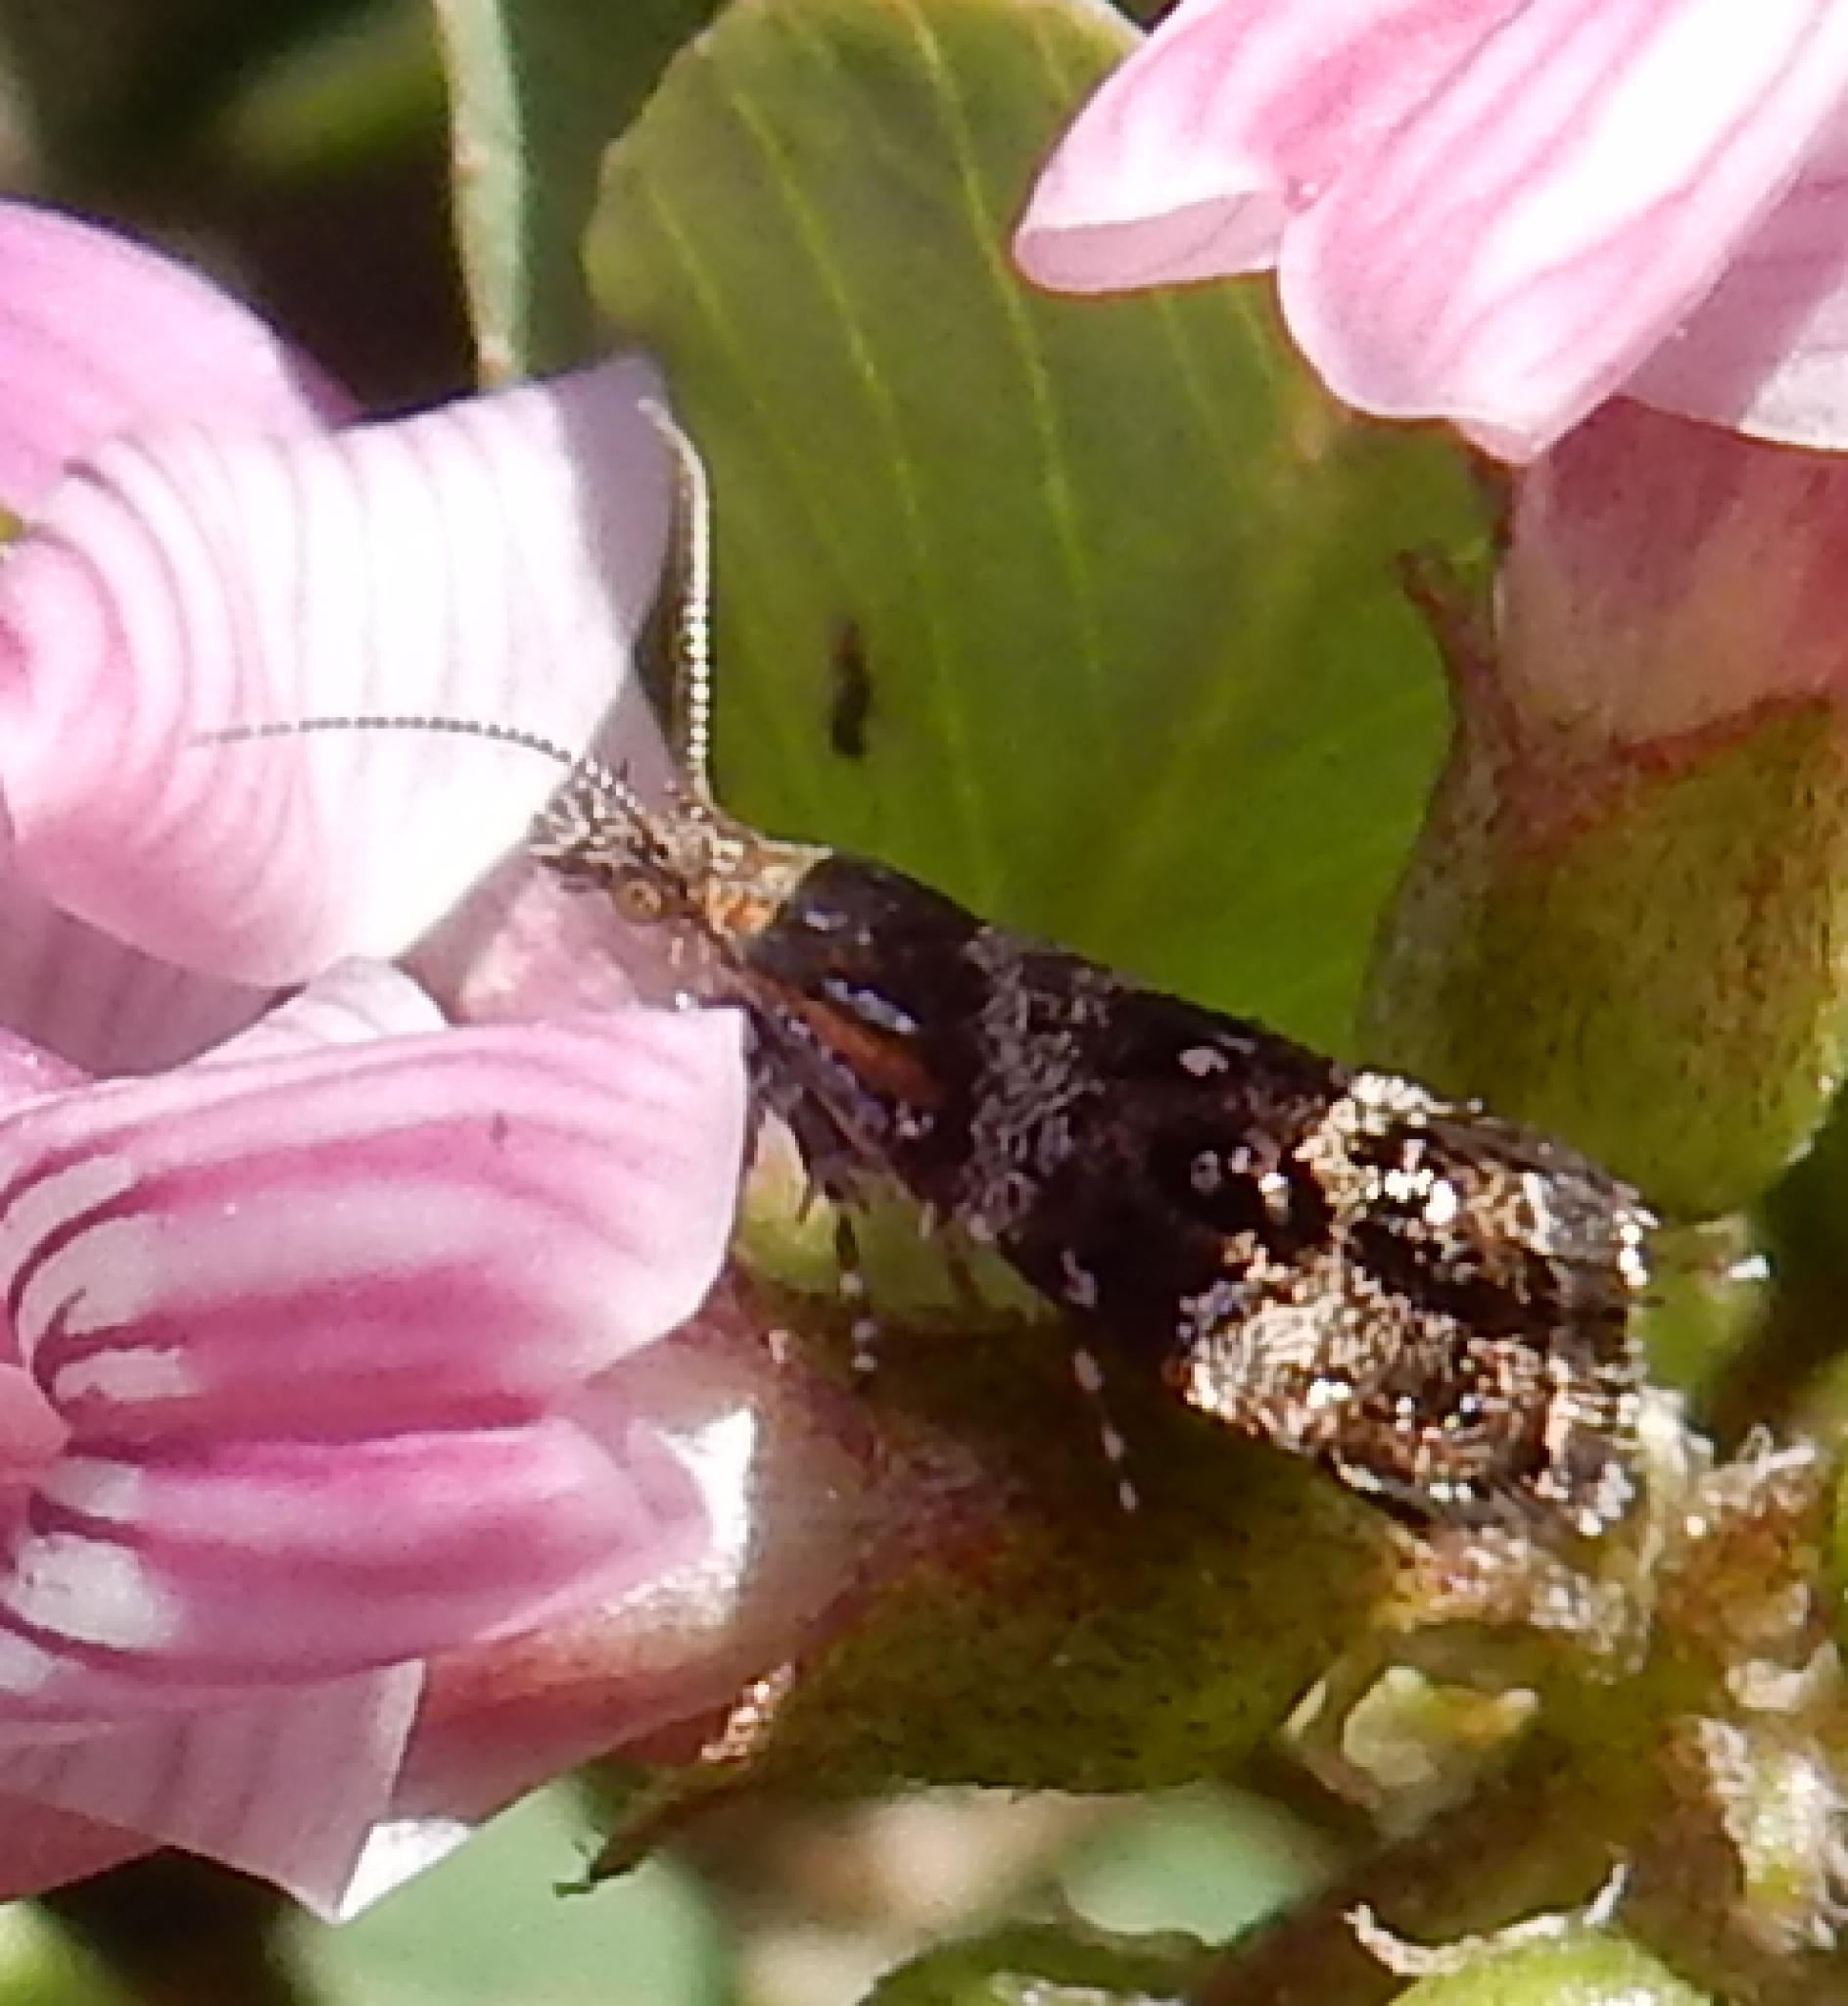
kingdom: Animalia
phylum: Arthropoda
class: Insecta
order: Lepidoptera
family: Choreutidae
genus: Tebenna
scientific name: Tebenna micalis
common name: Vagrant twitcher
